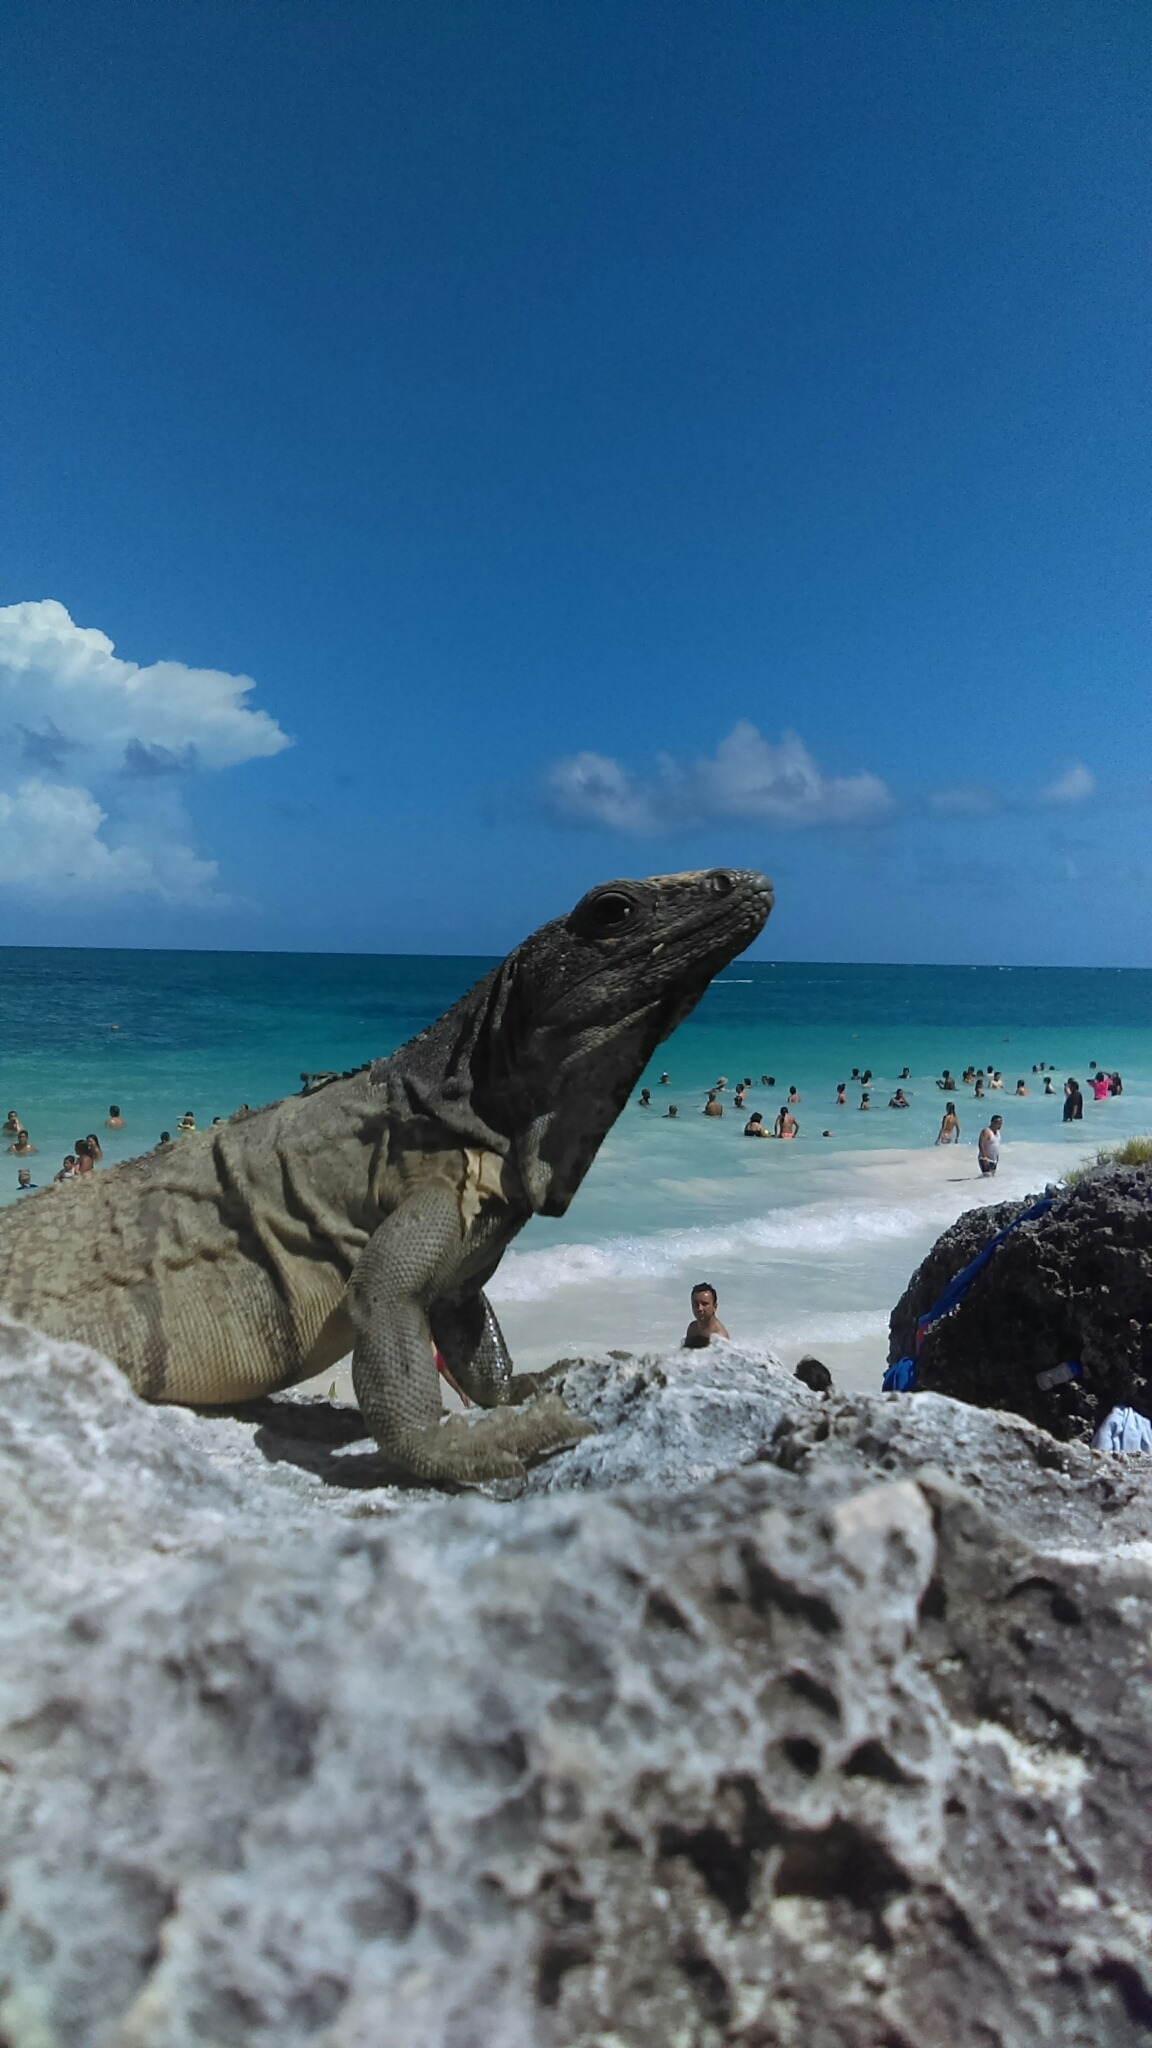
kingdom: Animalia
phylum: Chordata
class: Squamata
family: Iguanidae
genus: Ctenosaura
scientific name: Ctenosaura similis
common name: Black spiny-tailed iguana
